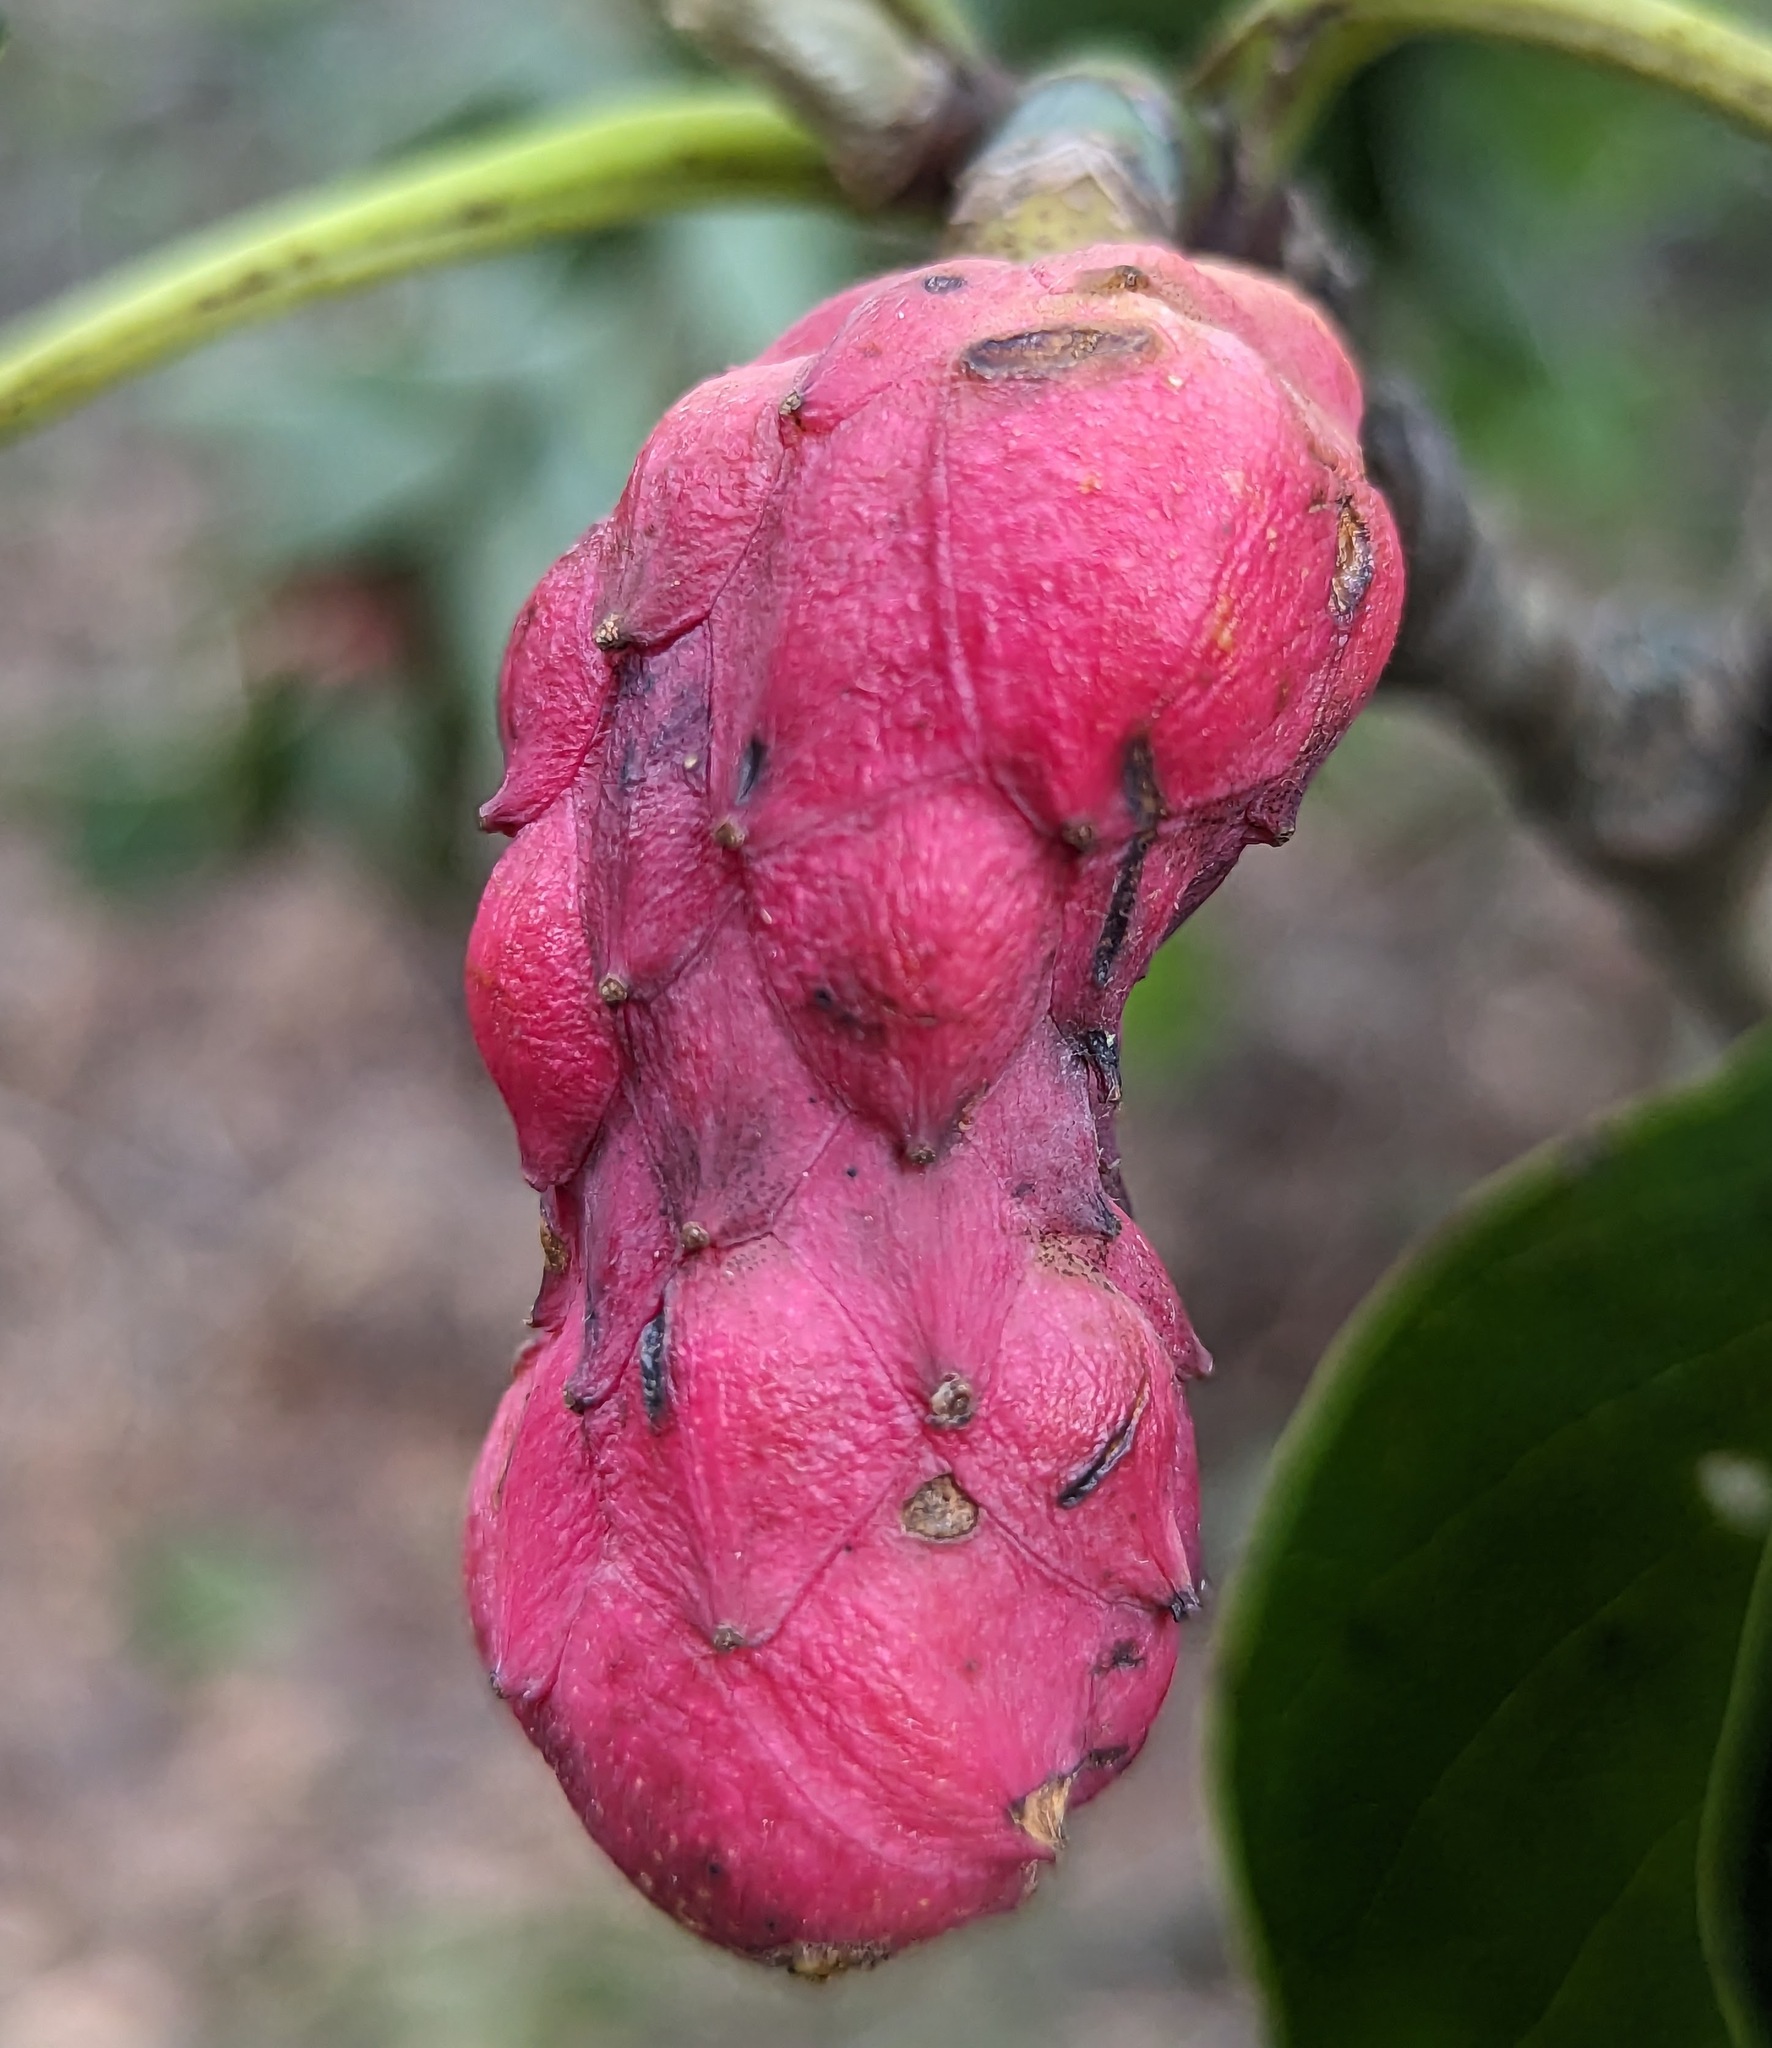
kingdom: Plantae
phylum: Tracheophyta
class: Magnoliopsida
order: Magnoliales
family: Magnoliaceae
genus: Magnolia
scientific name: Magnolia acuminata
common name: Cucumber magnolia
